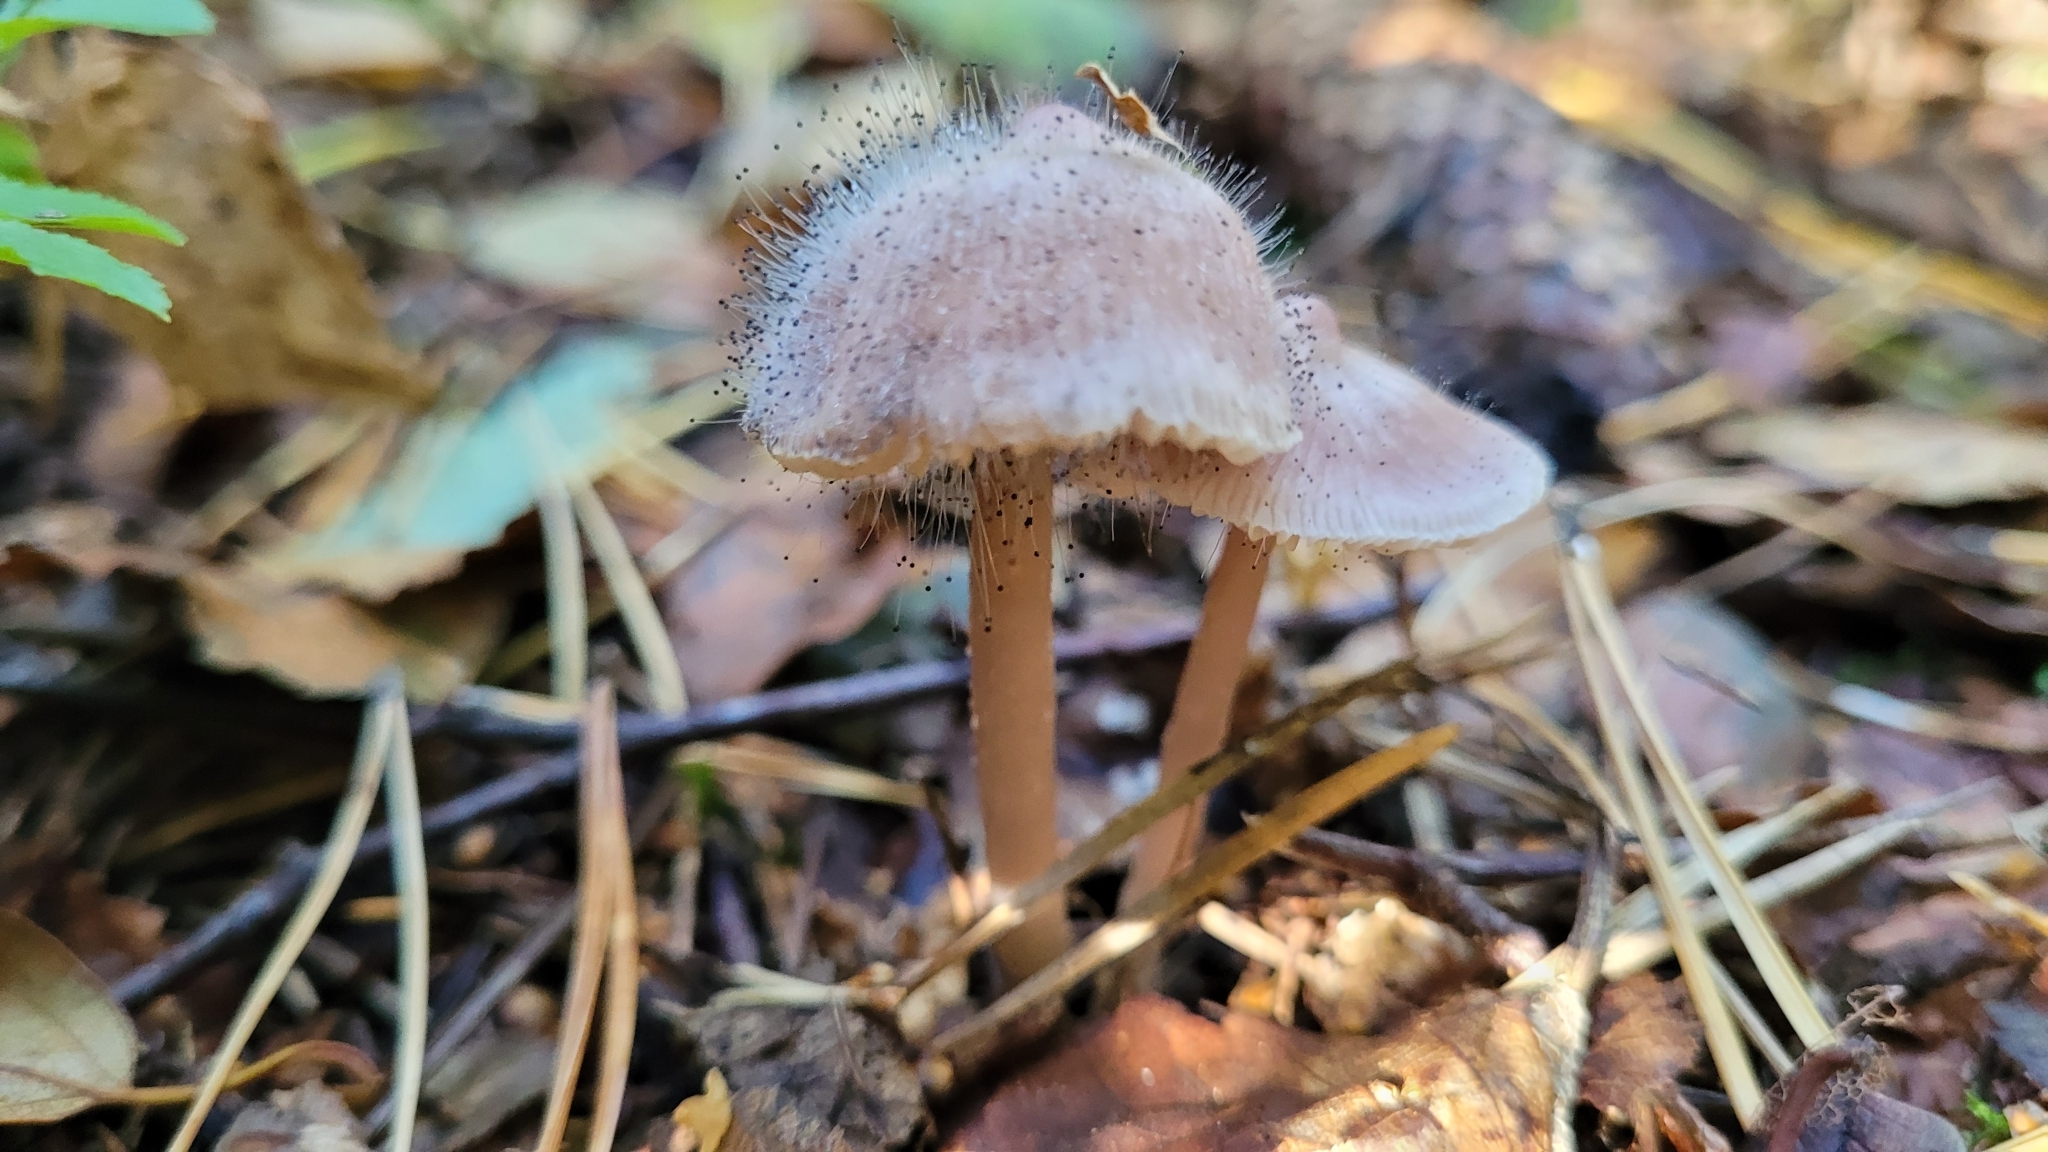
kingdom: Fungi
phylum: Mucoromycota
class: Mucoromycetes
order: Mucorales
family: Phycomycetaceae
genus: Spinellus
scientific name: Spinellus fusiger
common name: Bonnet mould
